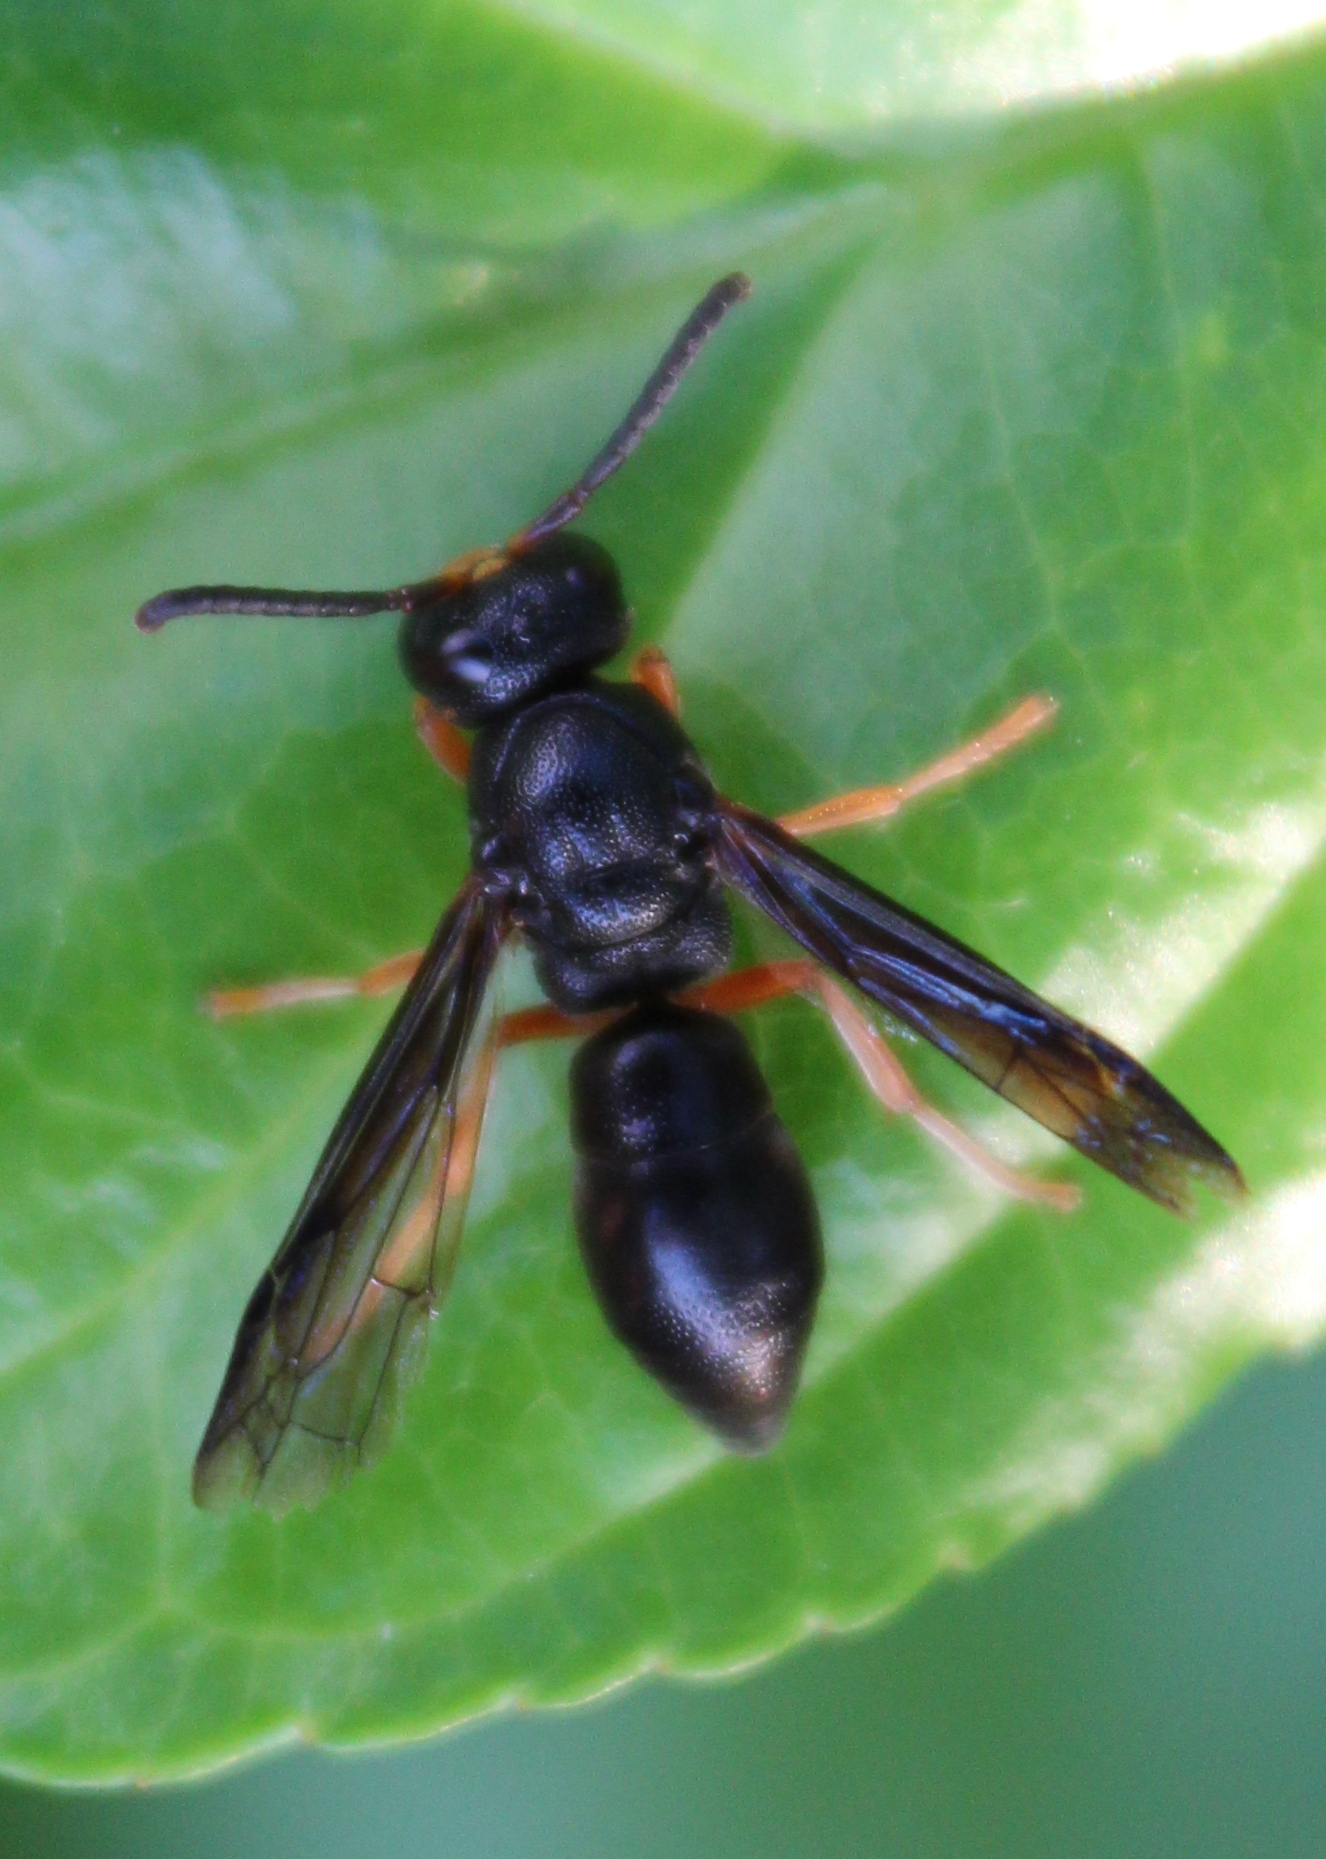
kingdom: Animalia
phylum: Arthropoda
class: Insecta
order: Hymenoptera
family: Eumenidae
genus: Anterhynchium
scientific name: Anterhynchium rufipes
